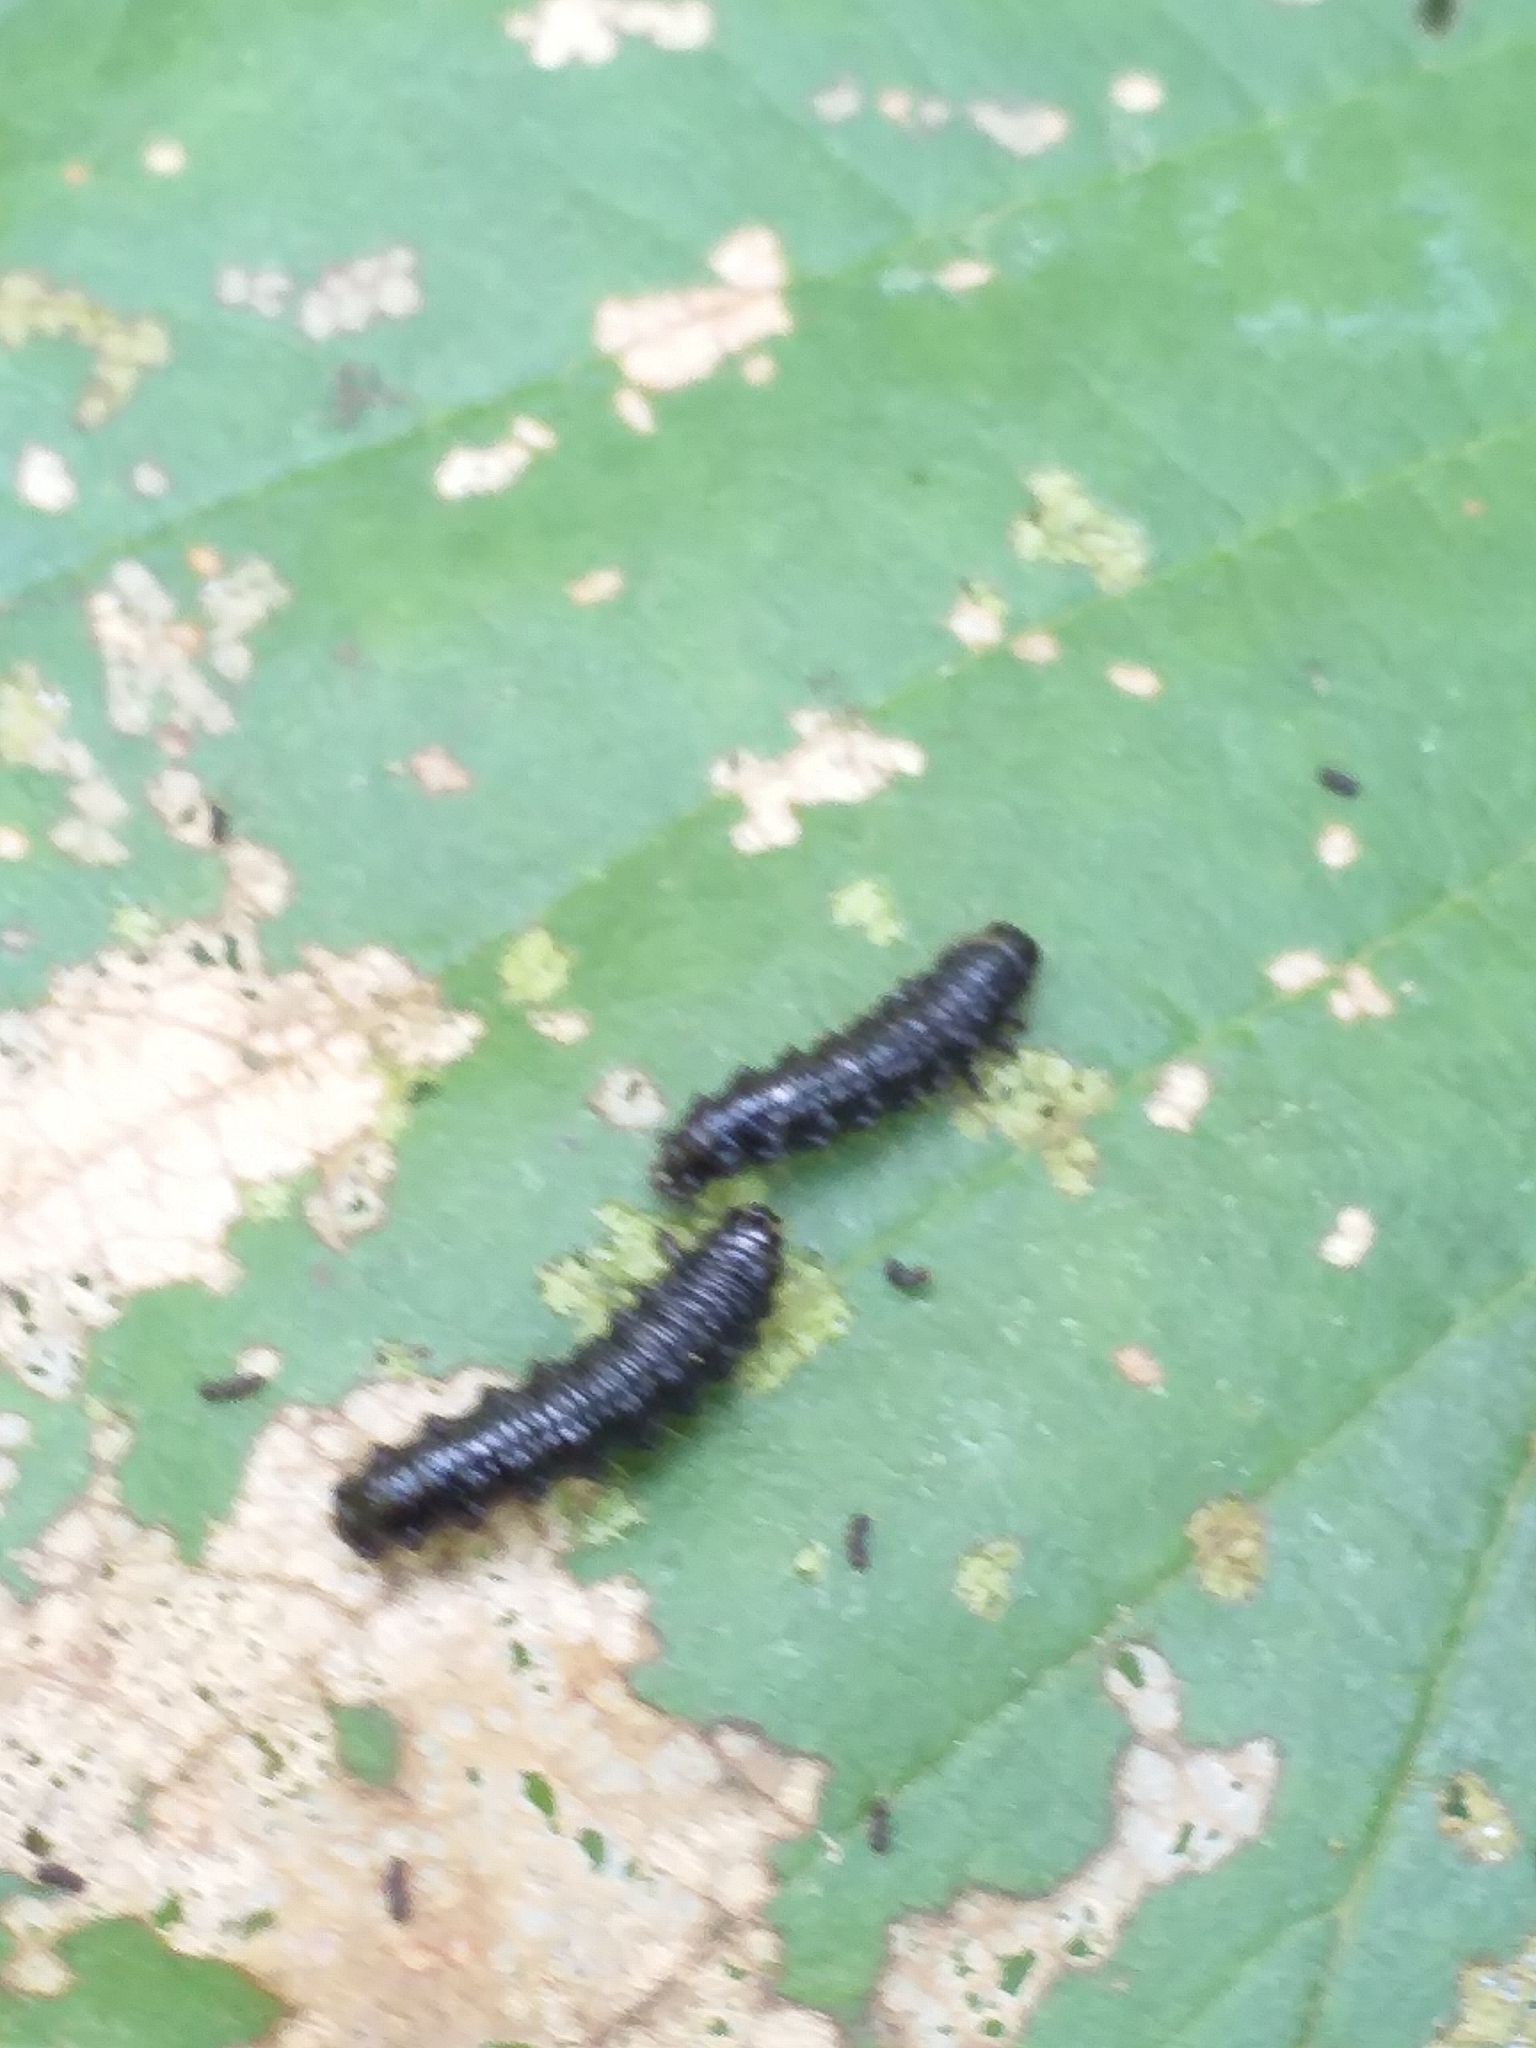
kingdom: Animalia
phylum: Arthropoda
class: Insecta
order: Coleoptera
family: Chrysomelidae
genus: Agelastica
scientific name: Agelastica alni
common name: Alder leaf beetle
